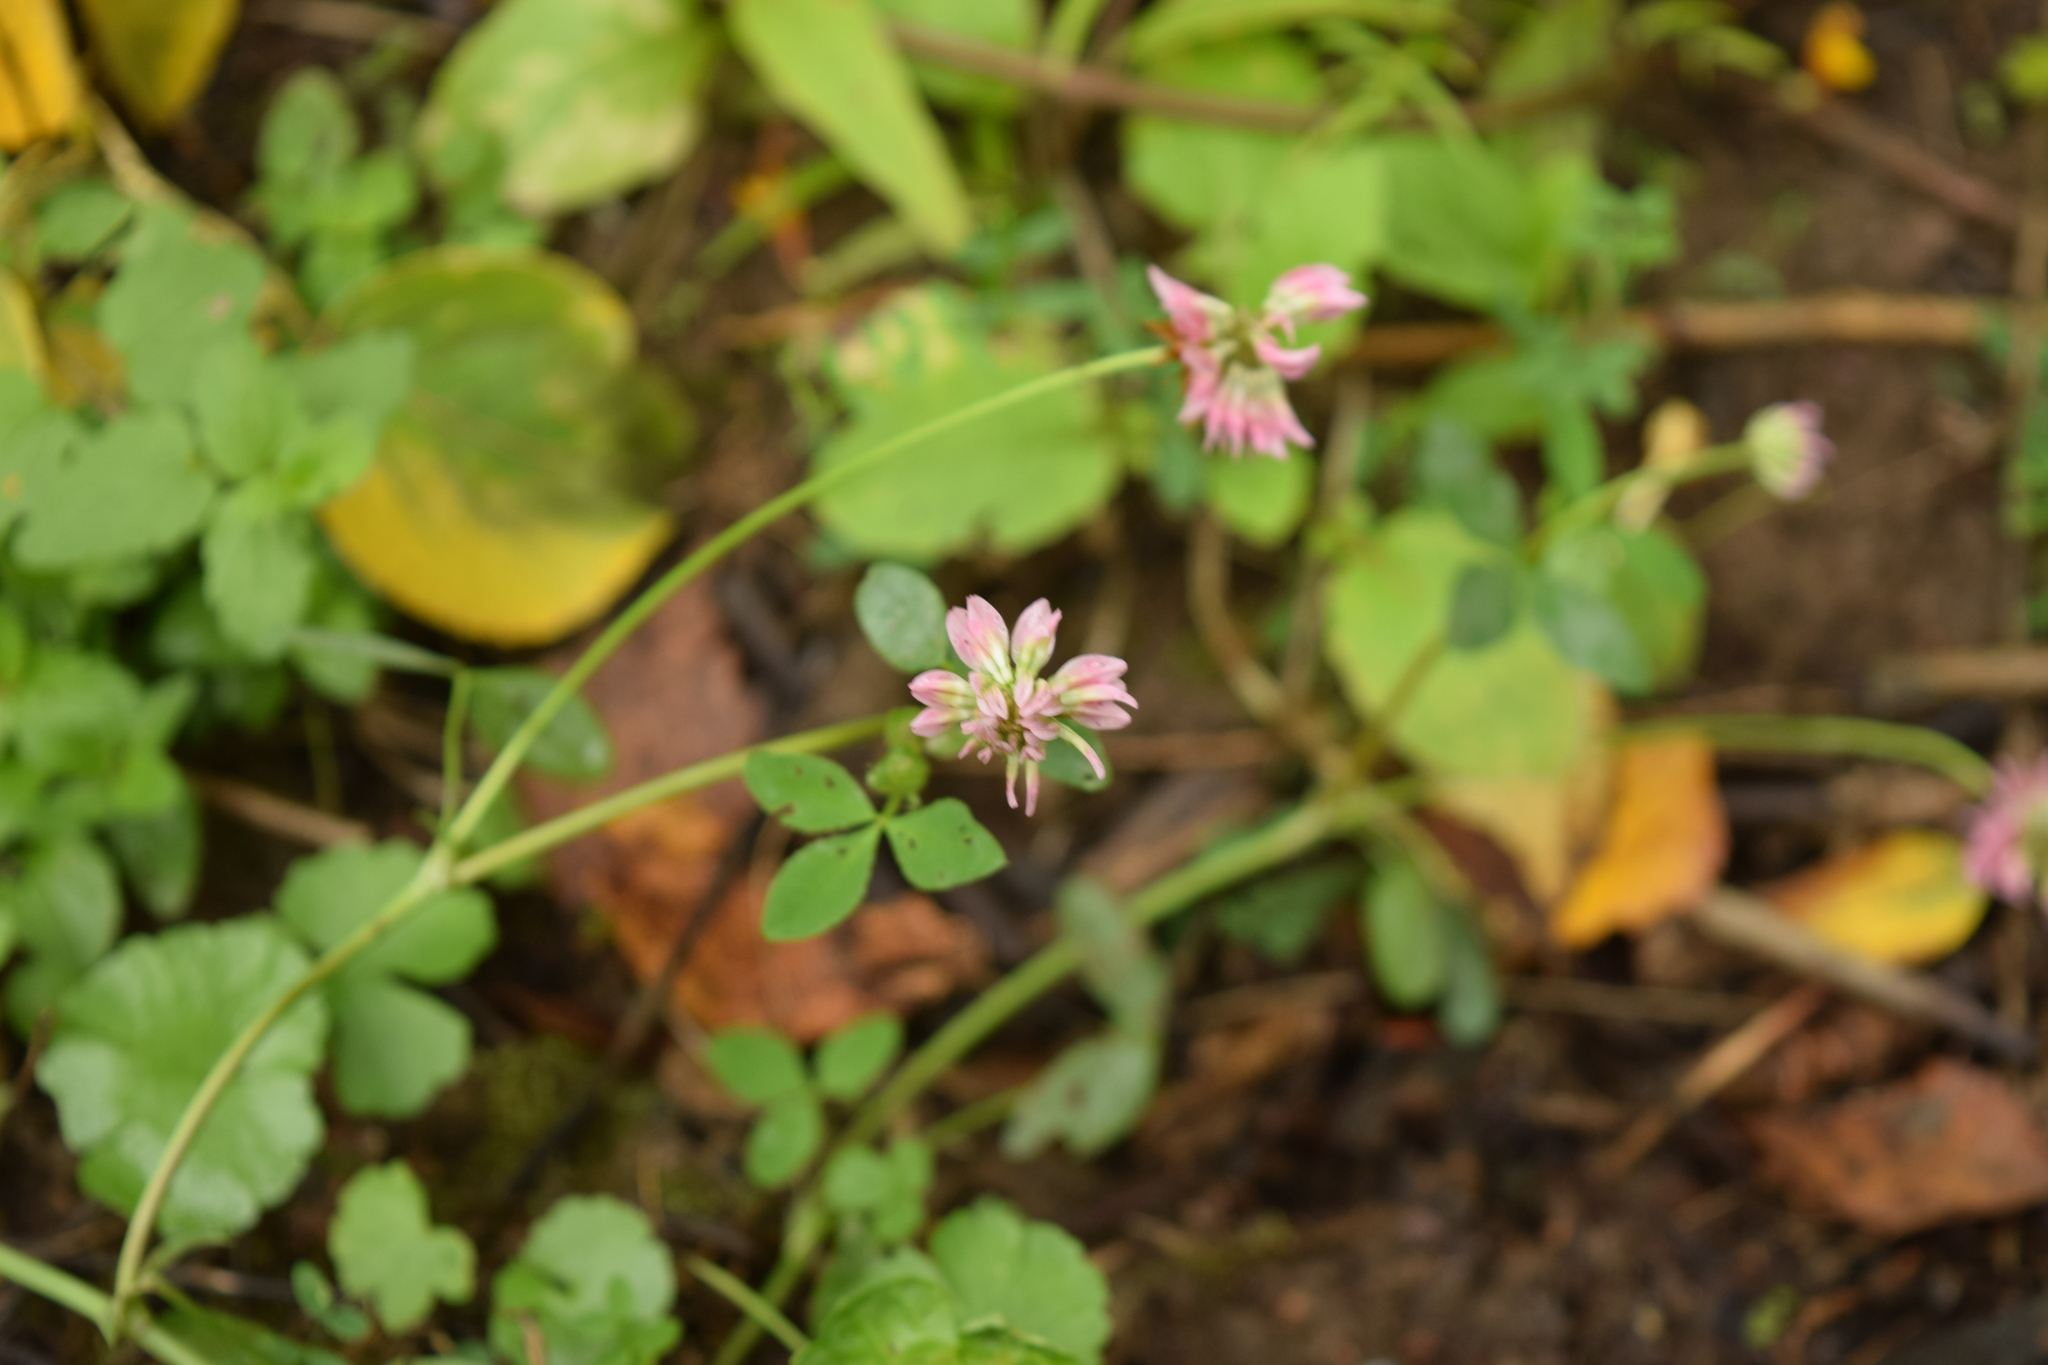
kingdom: Plantae
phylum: Tracheophyta
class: Magnoliopsida
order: Fabales
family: Fabaceae
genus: Trifolium
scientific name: Trifolium hybridum
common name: Alsike clover
